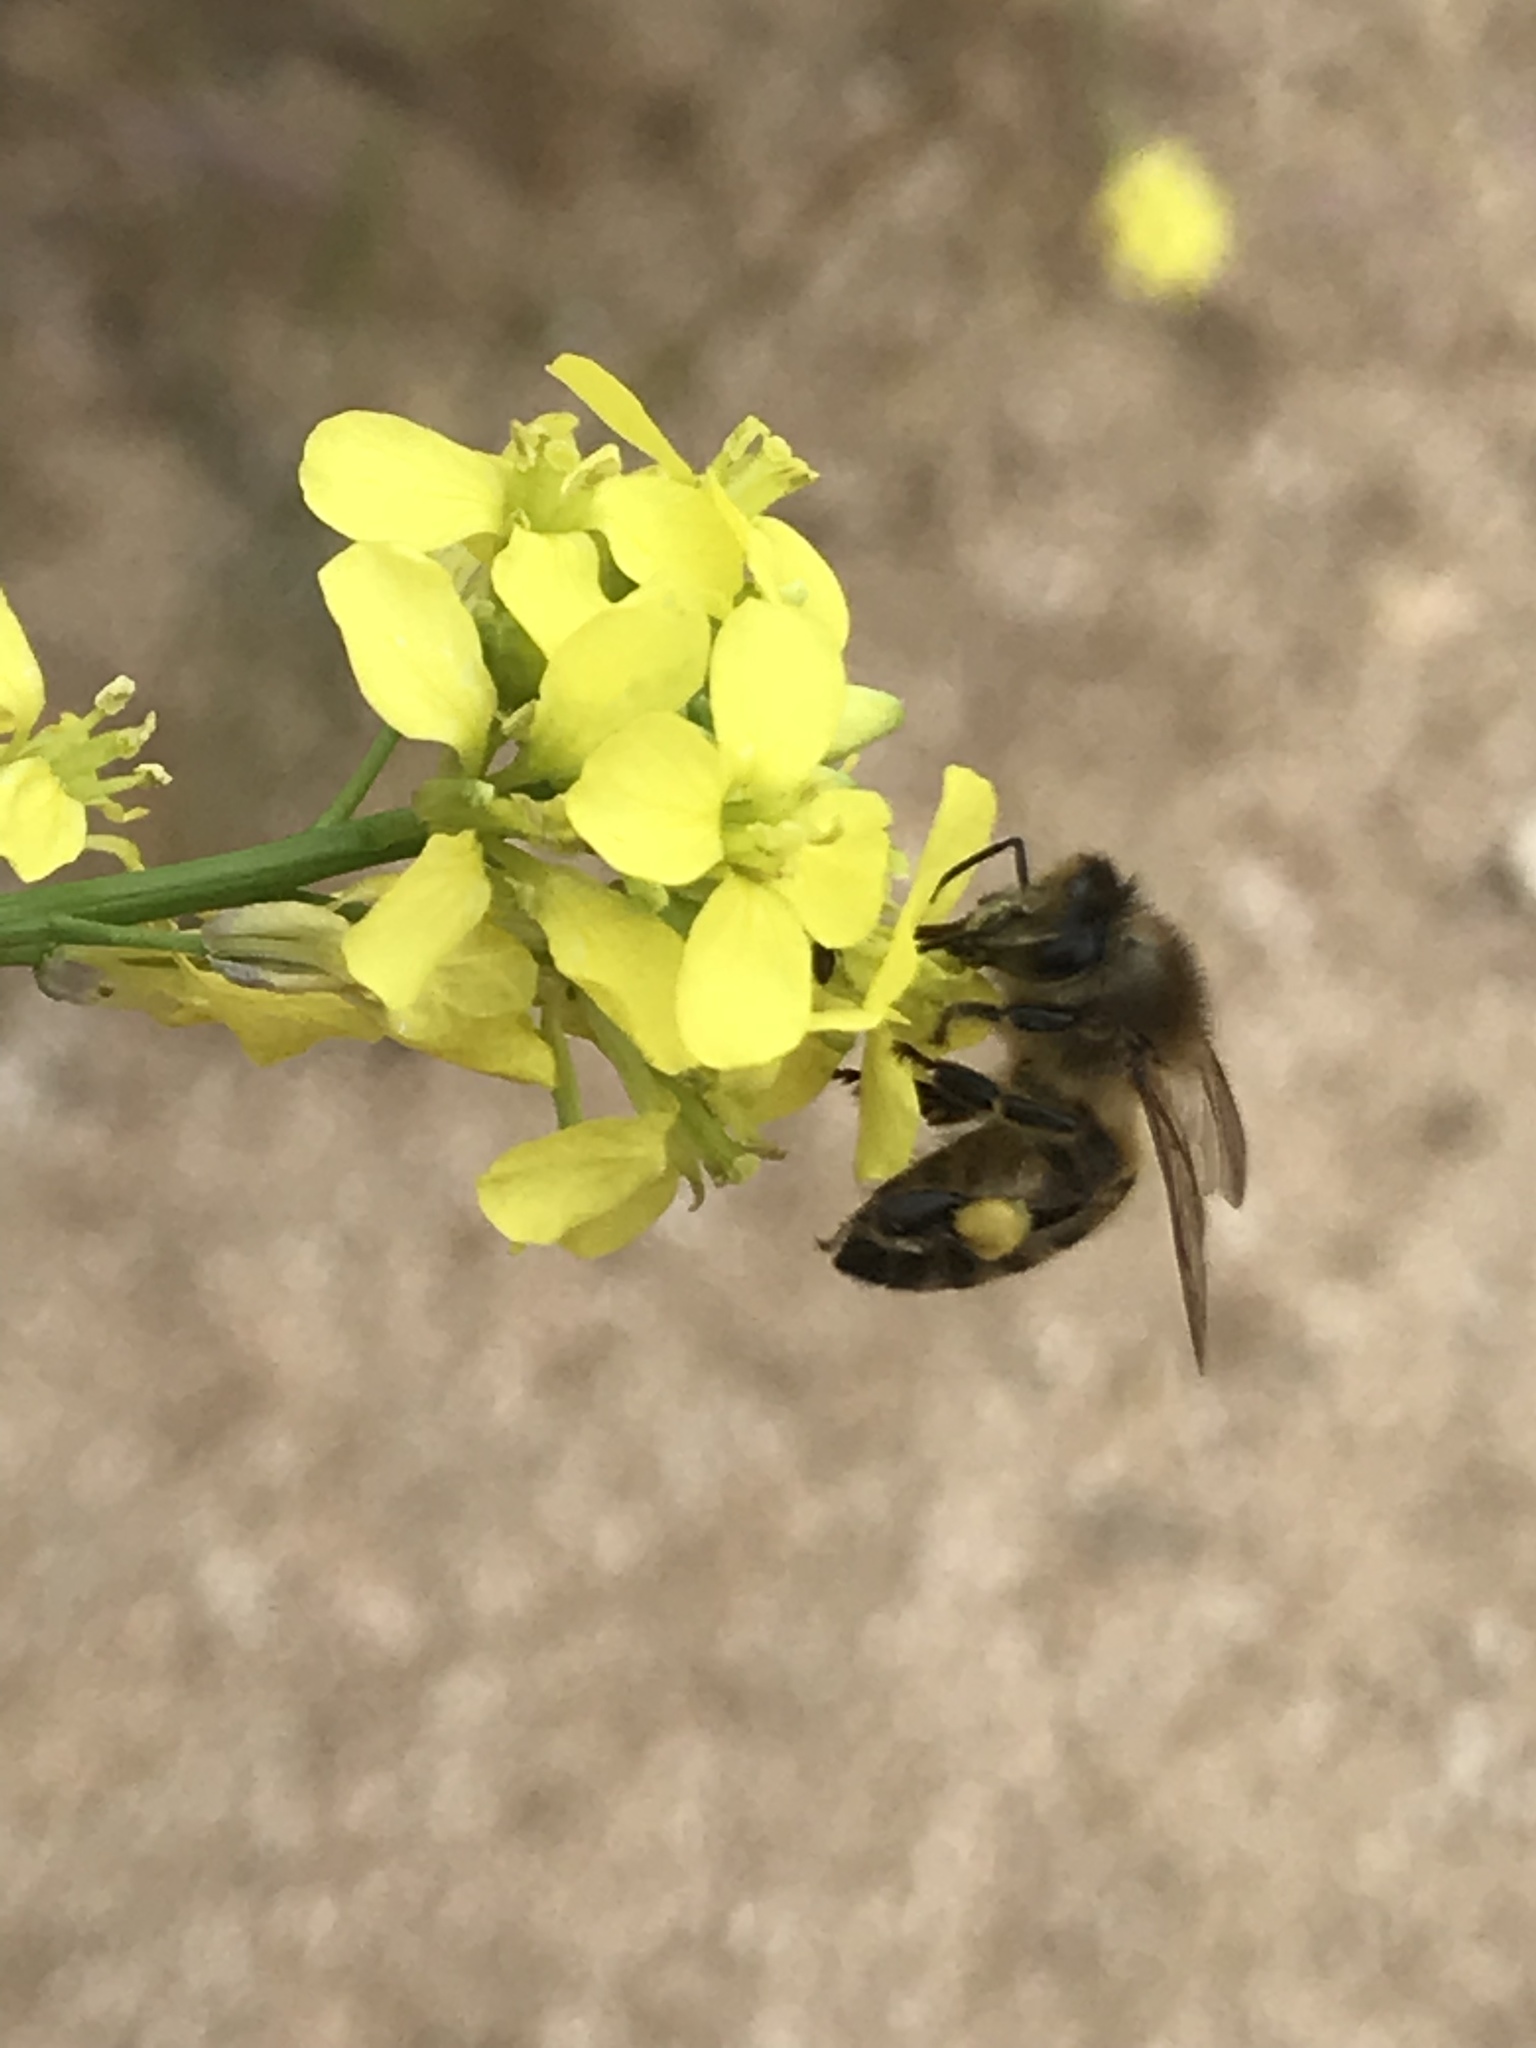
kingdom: Animalia
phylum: Arthropoda
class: Insecta
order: Hymenoptera
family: Apidae
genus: Apis
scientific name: Apis mellifera
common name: Honey bee
